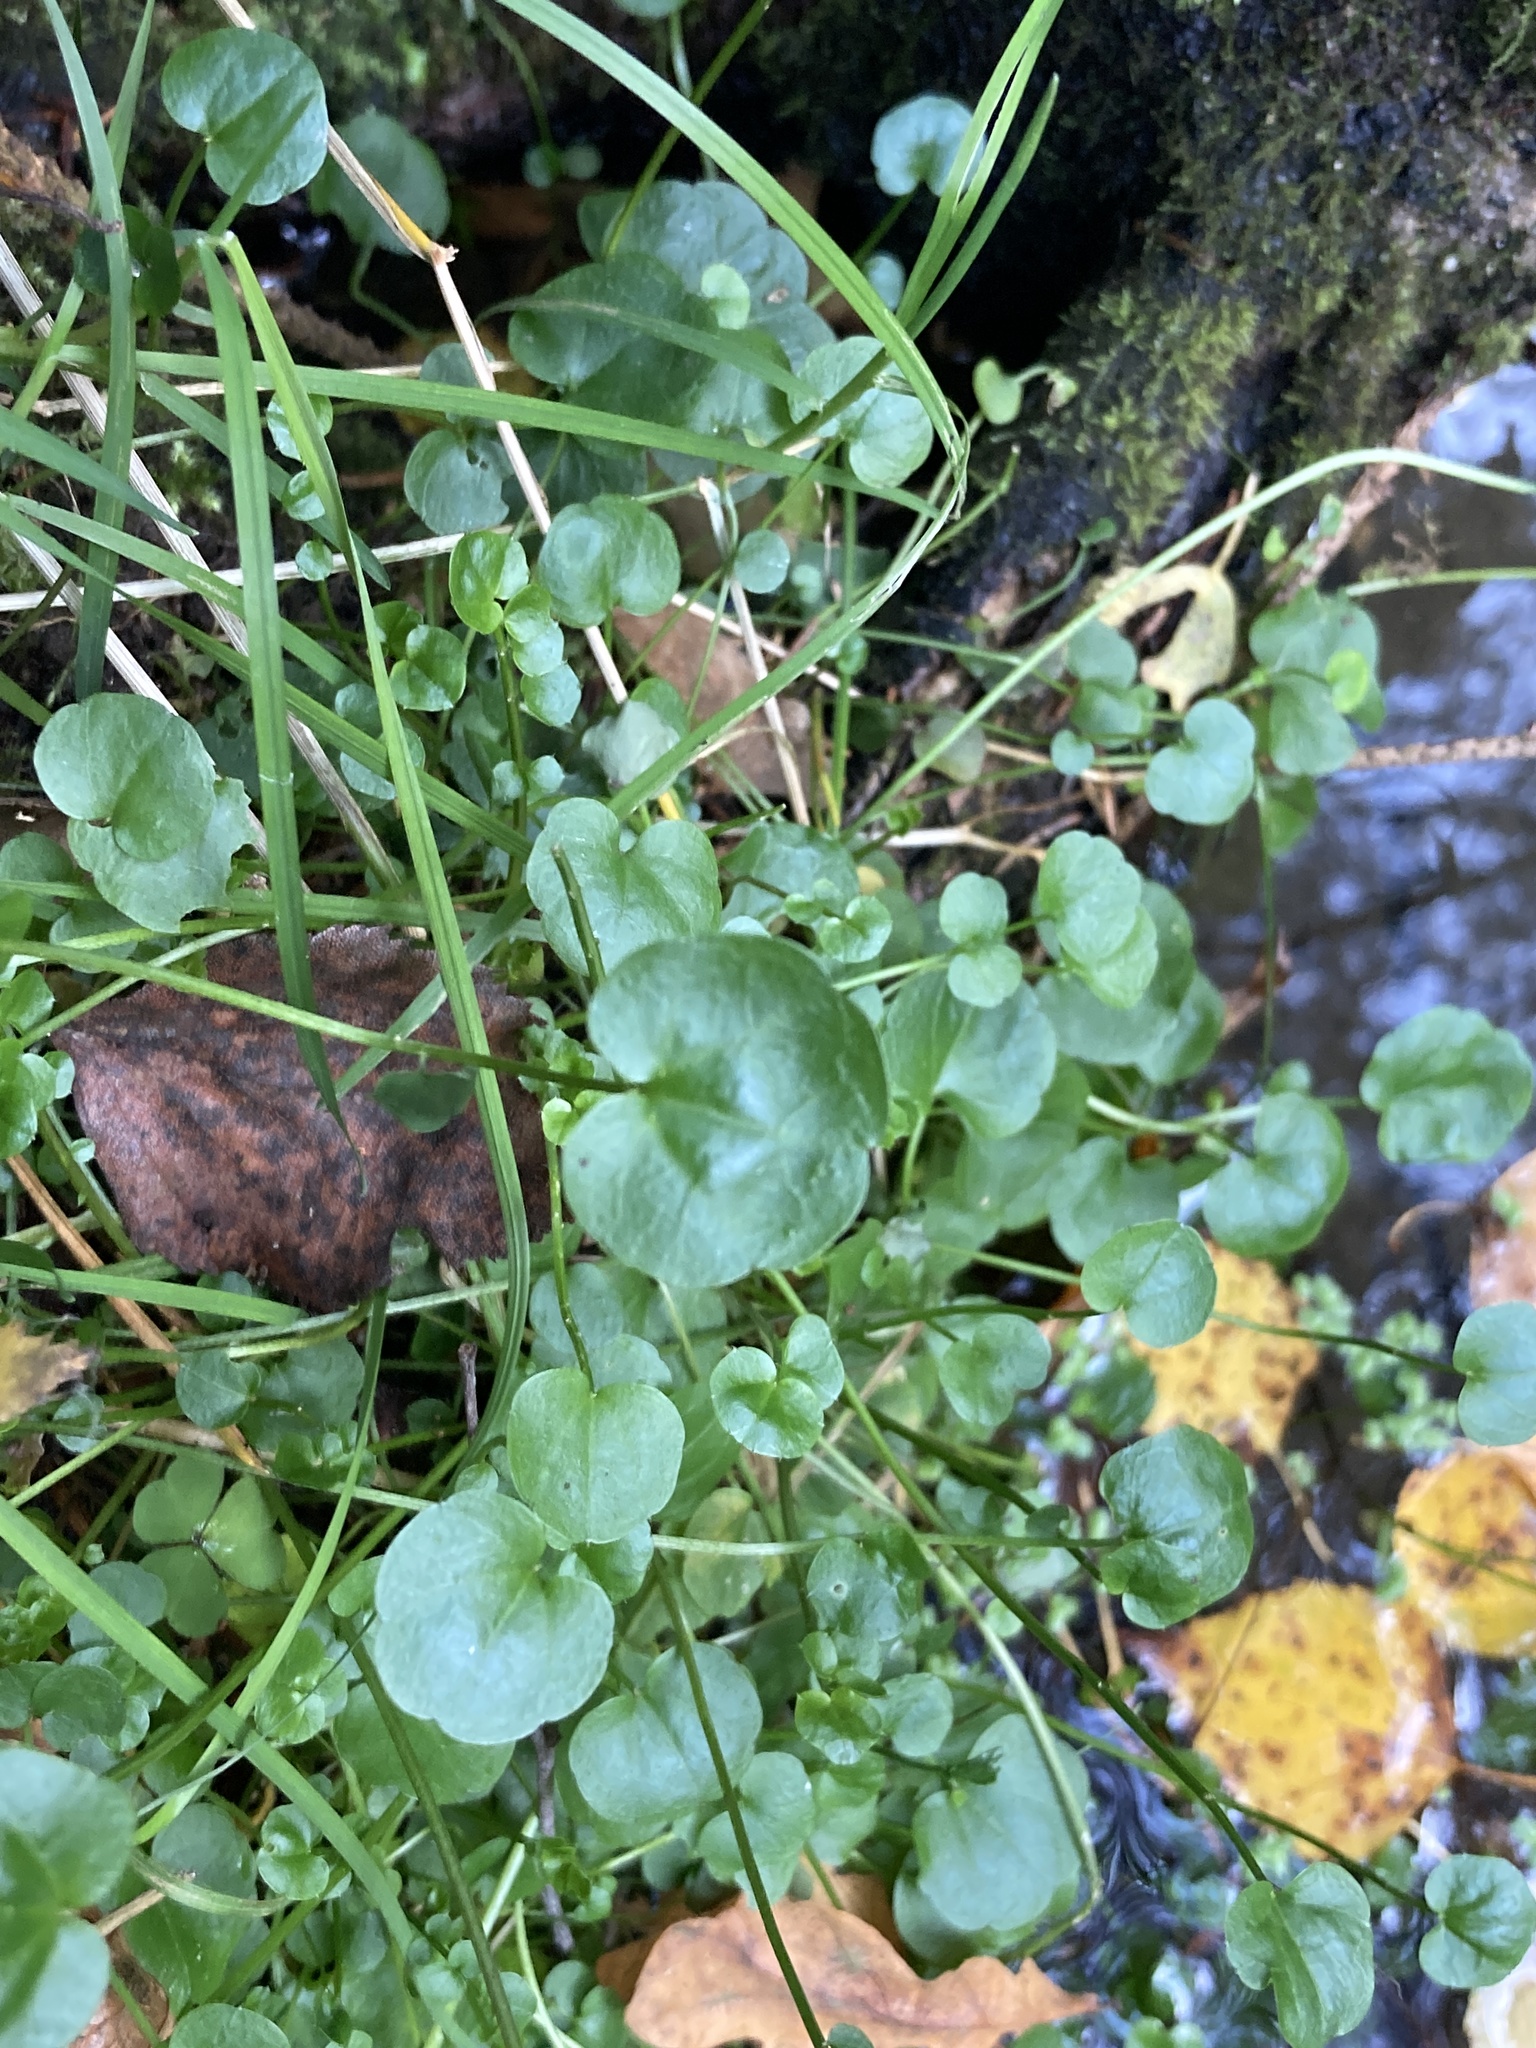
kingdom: Plantae
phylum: Tracheophyta
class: Magnoliopsida
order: Brassicales
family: Brassicaceae
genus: Cardamine
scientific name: Cardamine dentata
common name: Toothed bittercress
